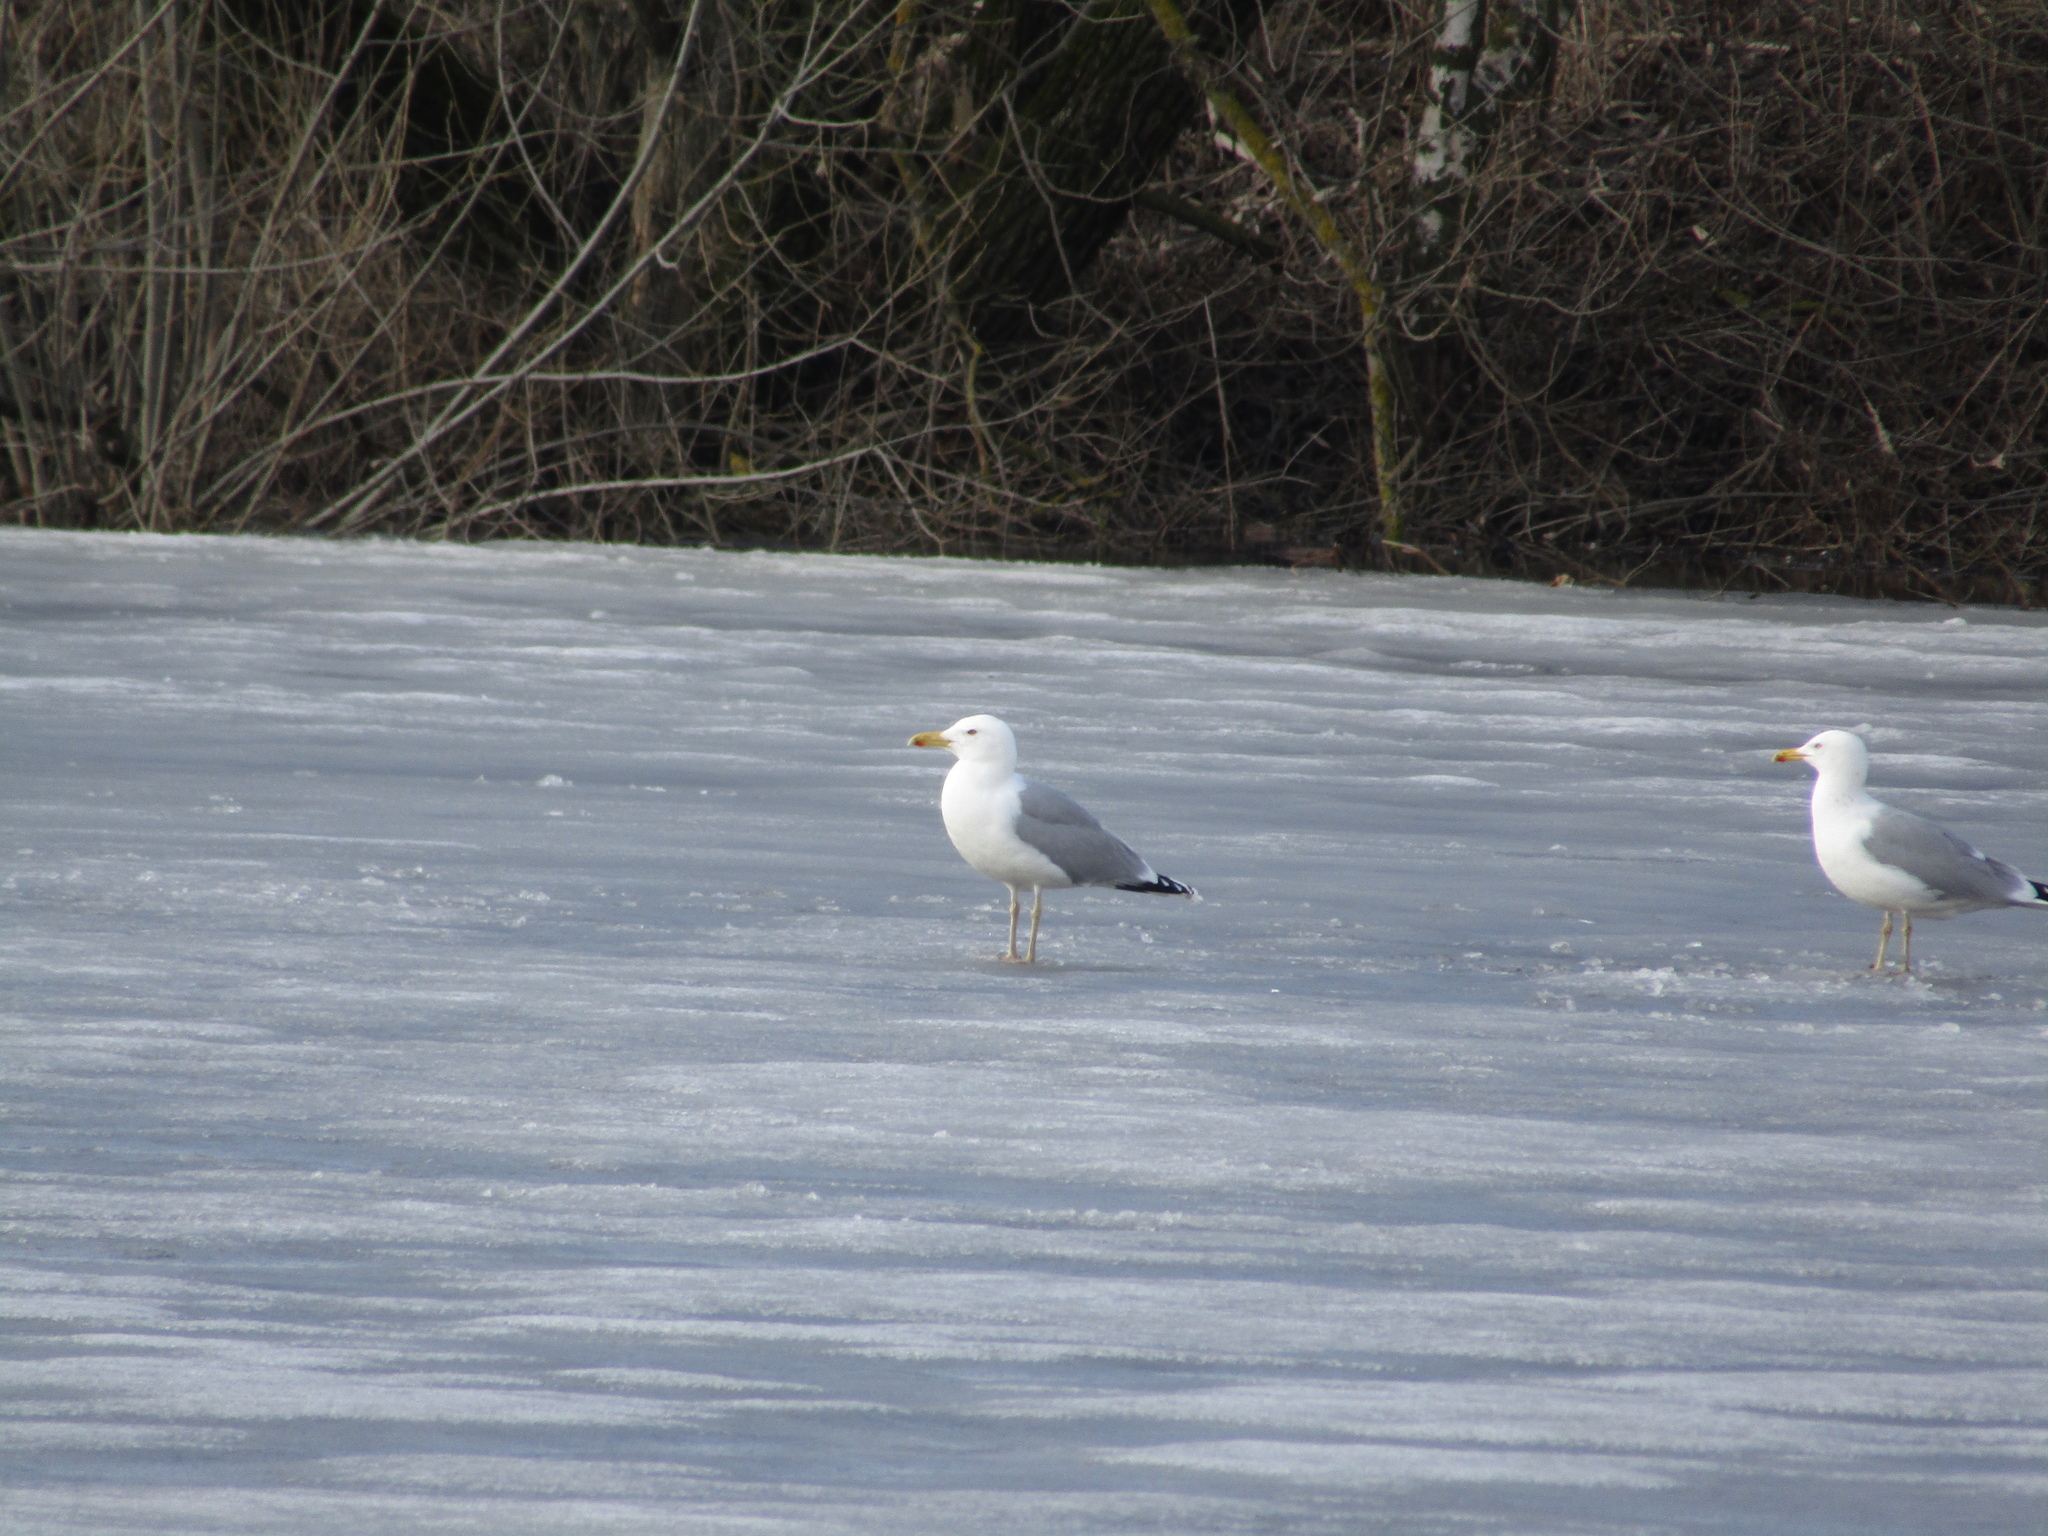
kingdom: Animalia
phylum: Chordata
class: Aves
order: Charadriiformes
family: Laridae
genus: Larus
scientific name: Larus argentatus
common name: Herring gull
